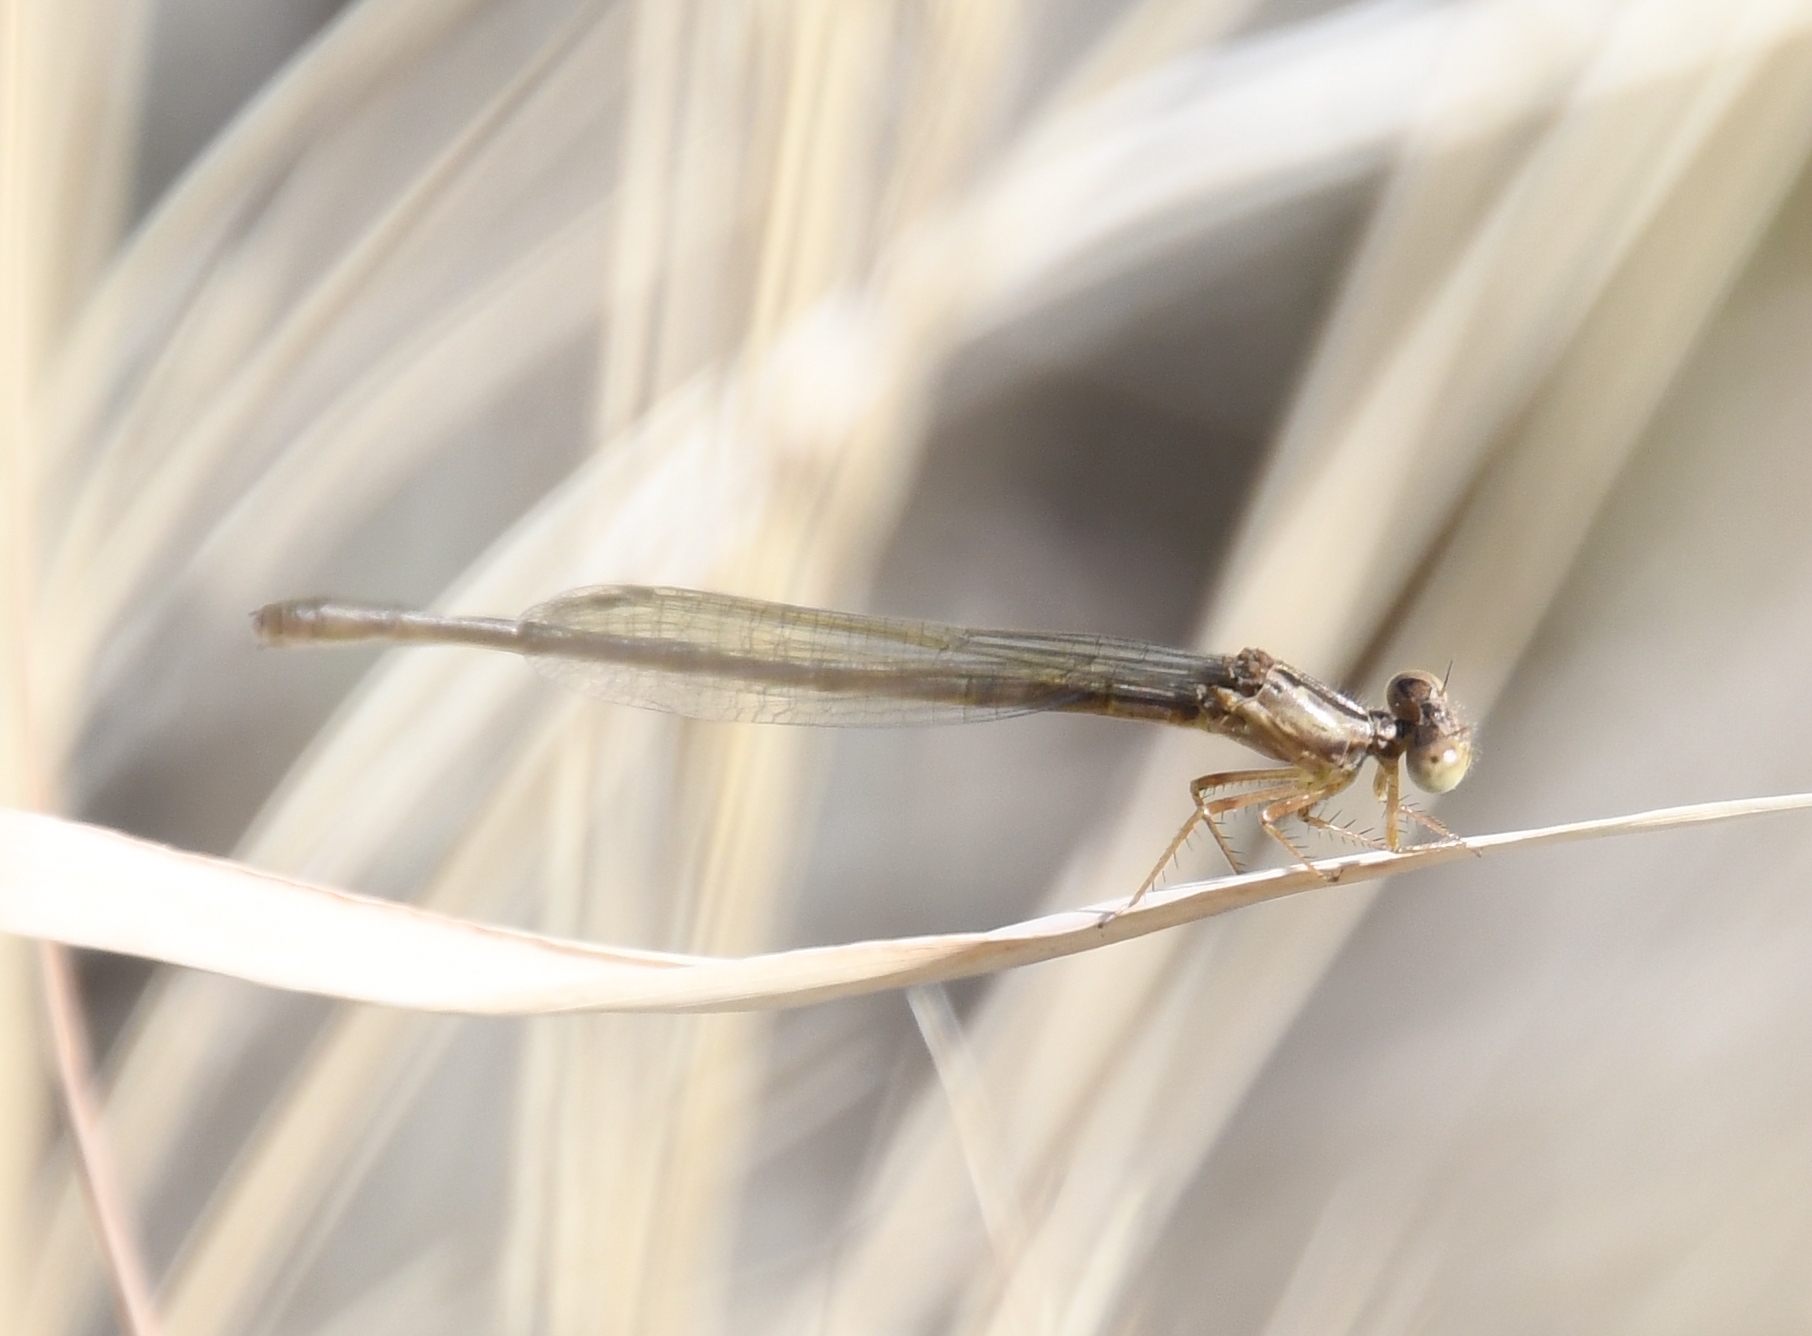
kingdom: Animalia
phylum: Arthropoda
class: Insecta
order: Odonata
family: Coenagrionidae
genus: Telebasis
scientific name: Telebasis salva
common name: Desert firetail
